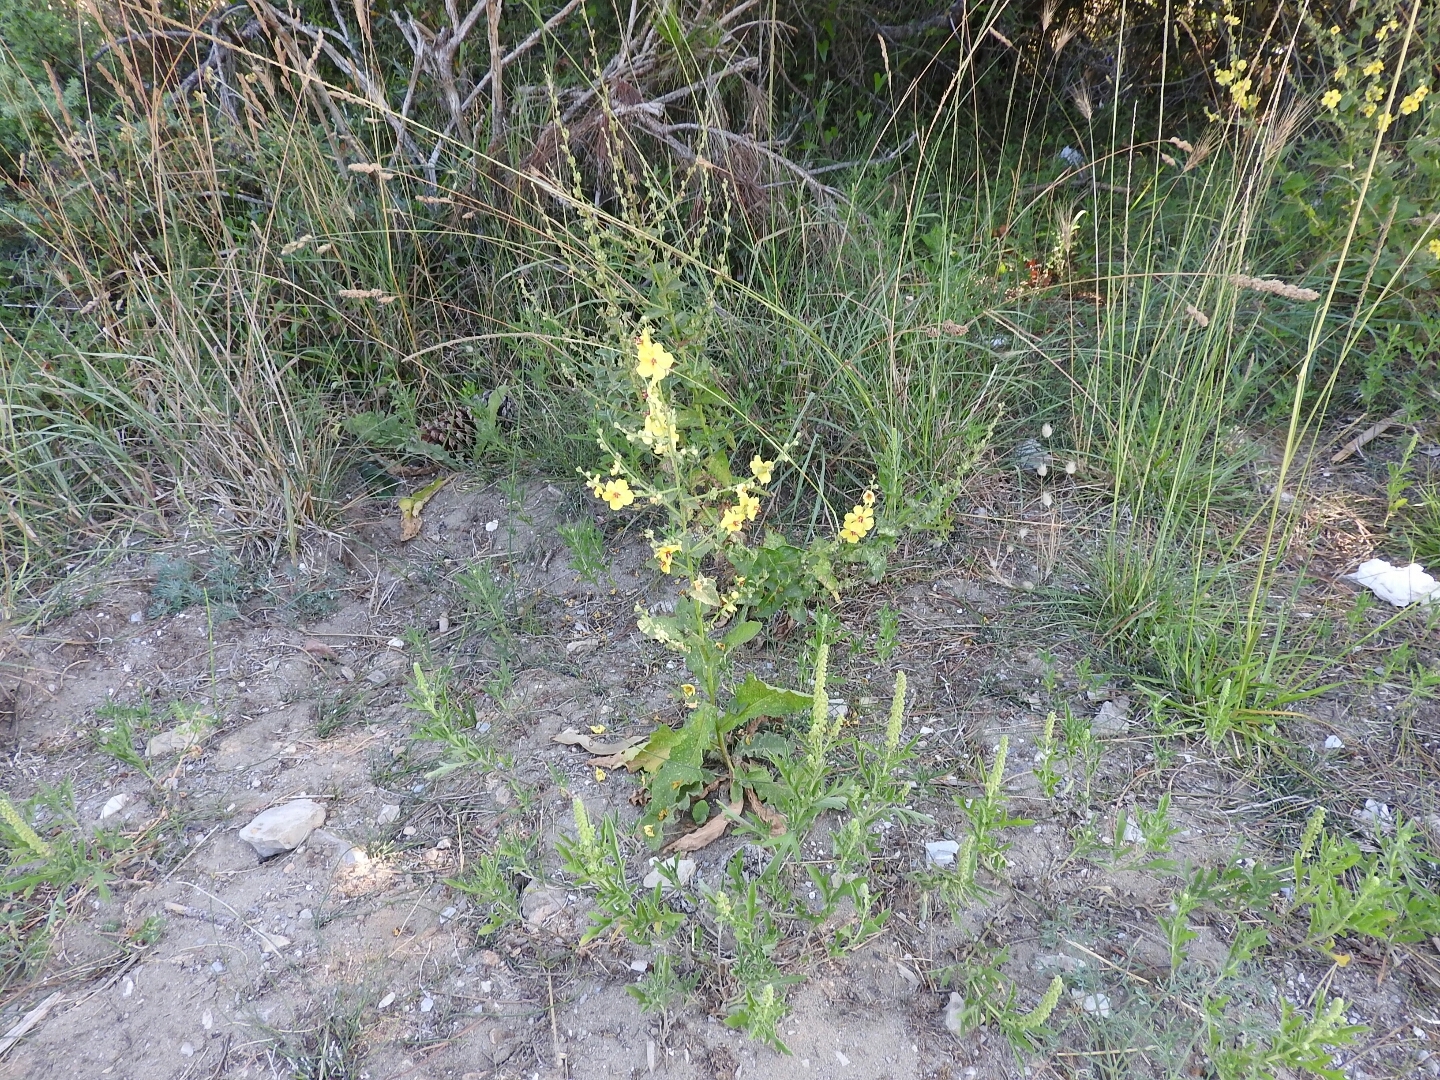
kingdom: Plantae
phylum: Tracheophyta
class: Magnoliopsida
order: Lamiales
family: Scrophulariaceae
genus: Verbascum
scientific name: Verbascum sinuatum
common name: Wavyleaf mullein
